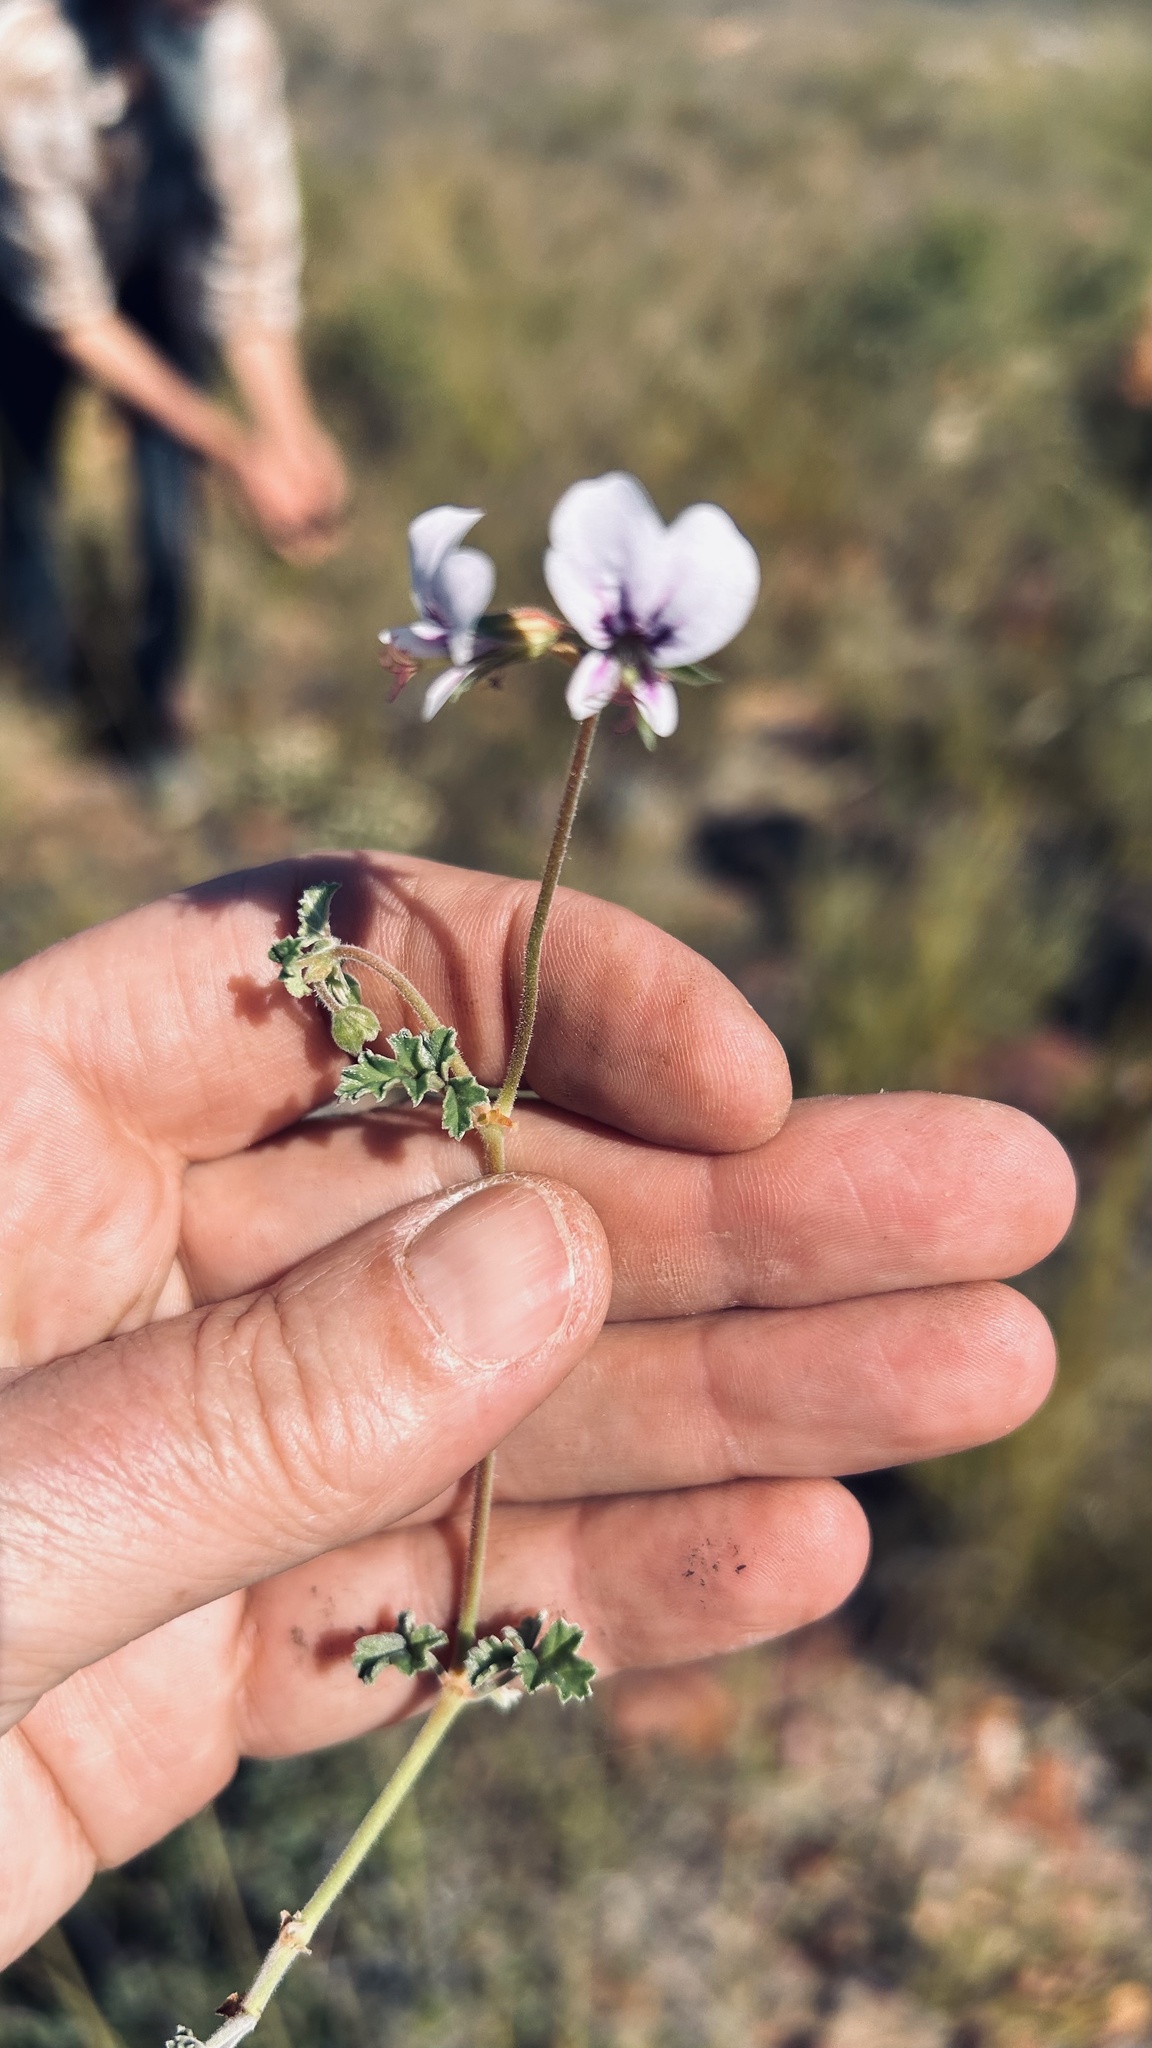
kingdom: Plantae
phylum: Tracheophyta
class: Magnoliopsida
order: Geraniales
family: Geraniaceae
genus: Pelargonium
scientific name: Pelargonium candicans
